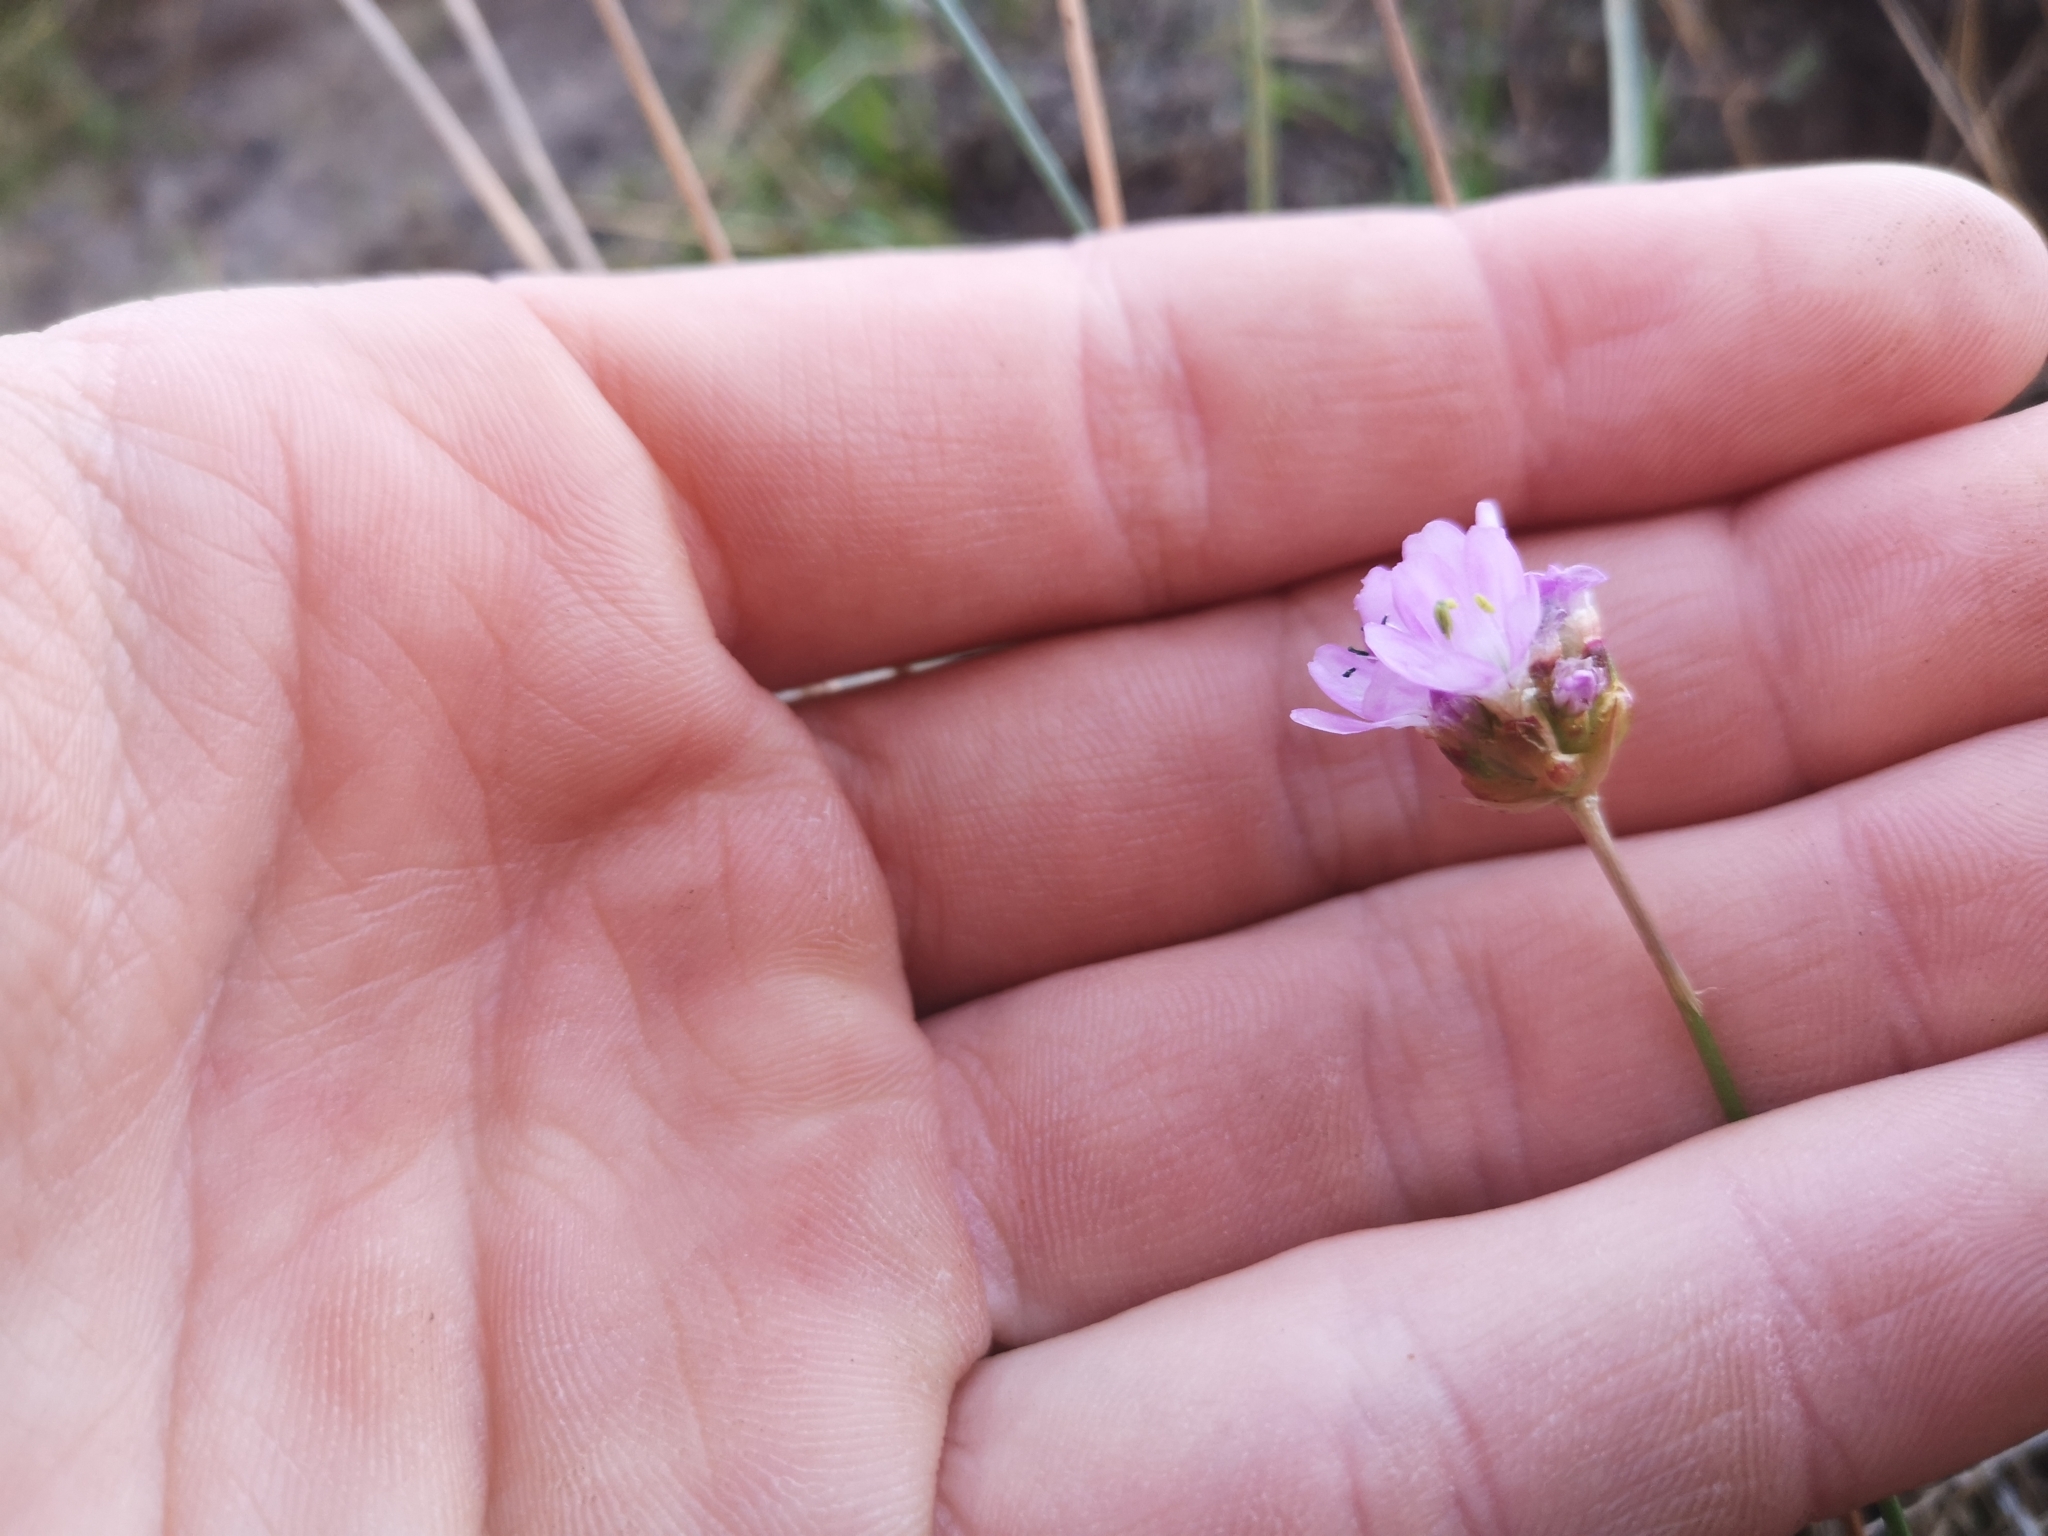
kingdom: Plantae
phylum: Tracheophyta
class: Magnoliopsida
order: Caryophyllales
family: Plumbaginaceae
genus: Armeria
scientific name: Armeria maritima
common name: Thrift
